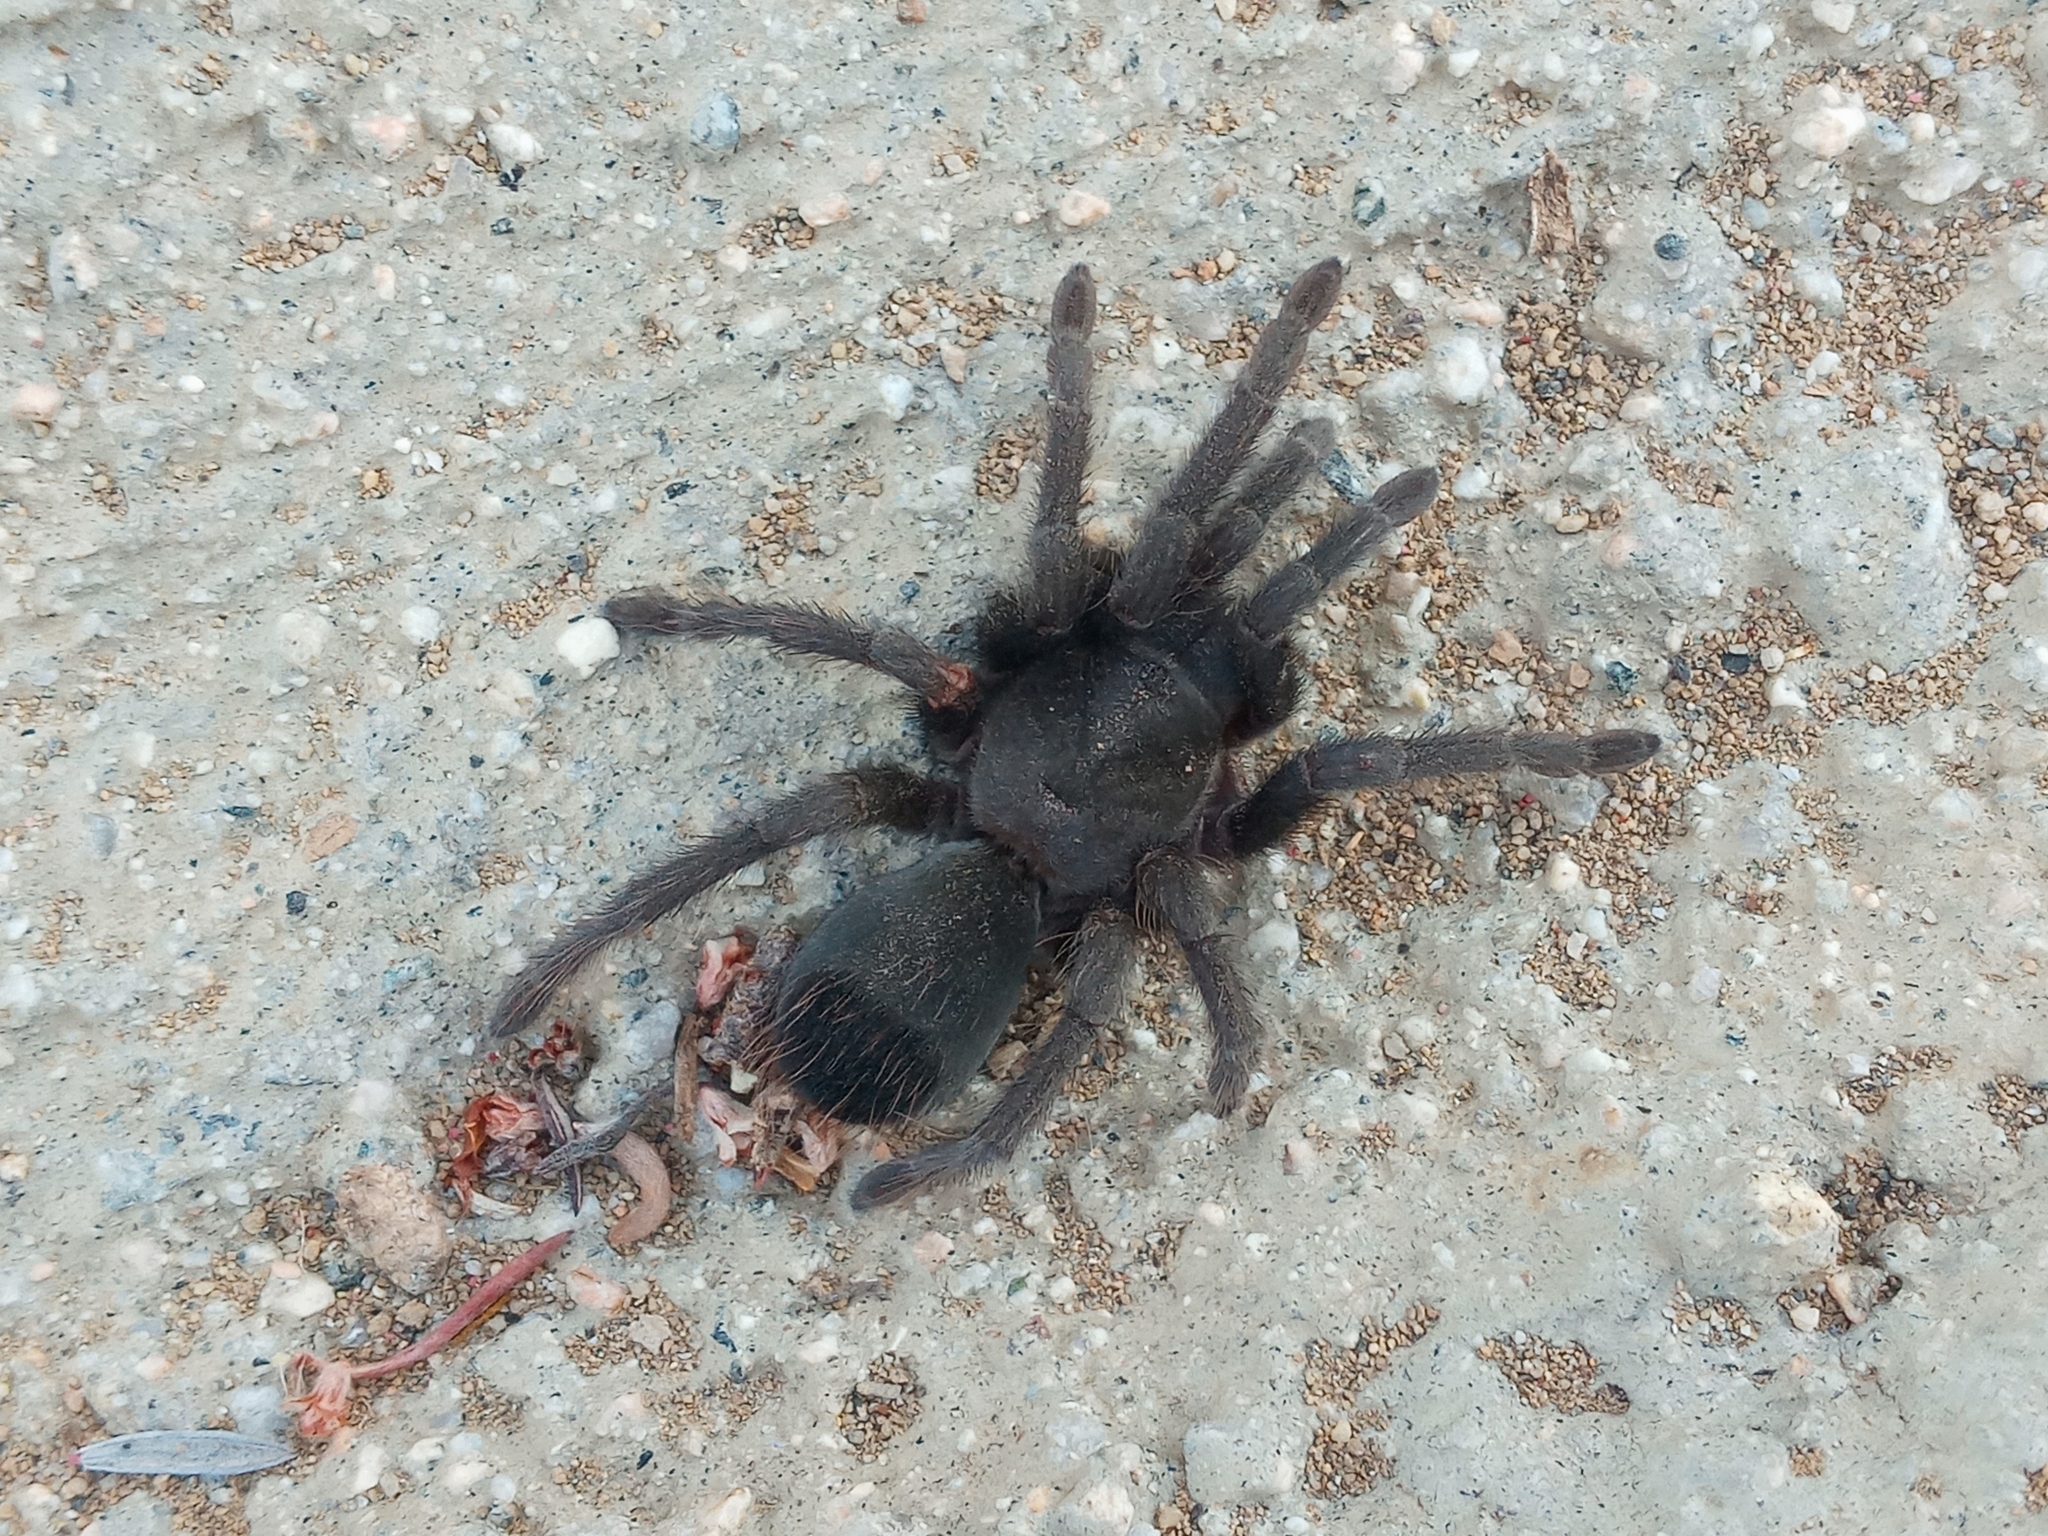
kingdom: Animalia
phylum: Arthropoda
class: Arachnida
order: Araneae
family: Theraphosidae
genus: Aphonopelma
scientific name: Aphonopelma steindachneri
